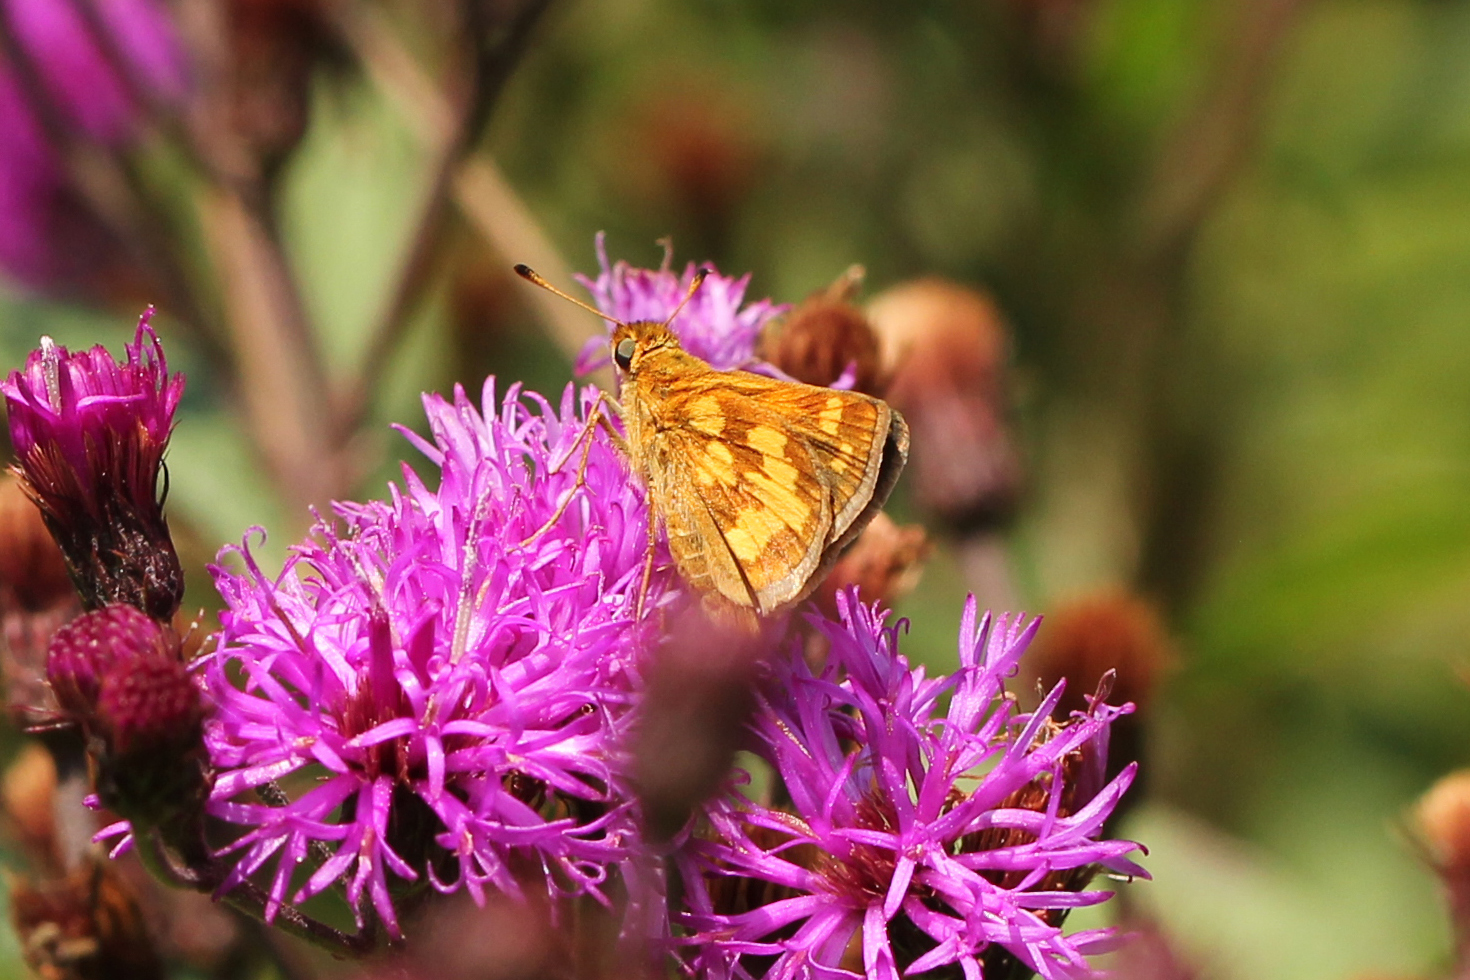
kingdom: Animalia
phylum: Arthropoda
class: Insecta
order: Lepidoptera
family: Hesperiidae
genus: Polites
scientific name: Polites coras
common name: Peck's skipper
